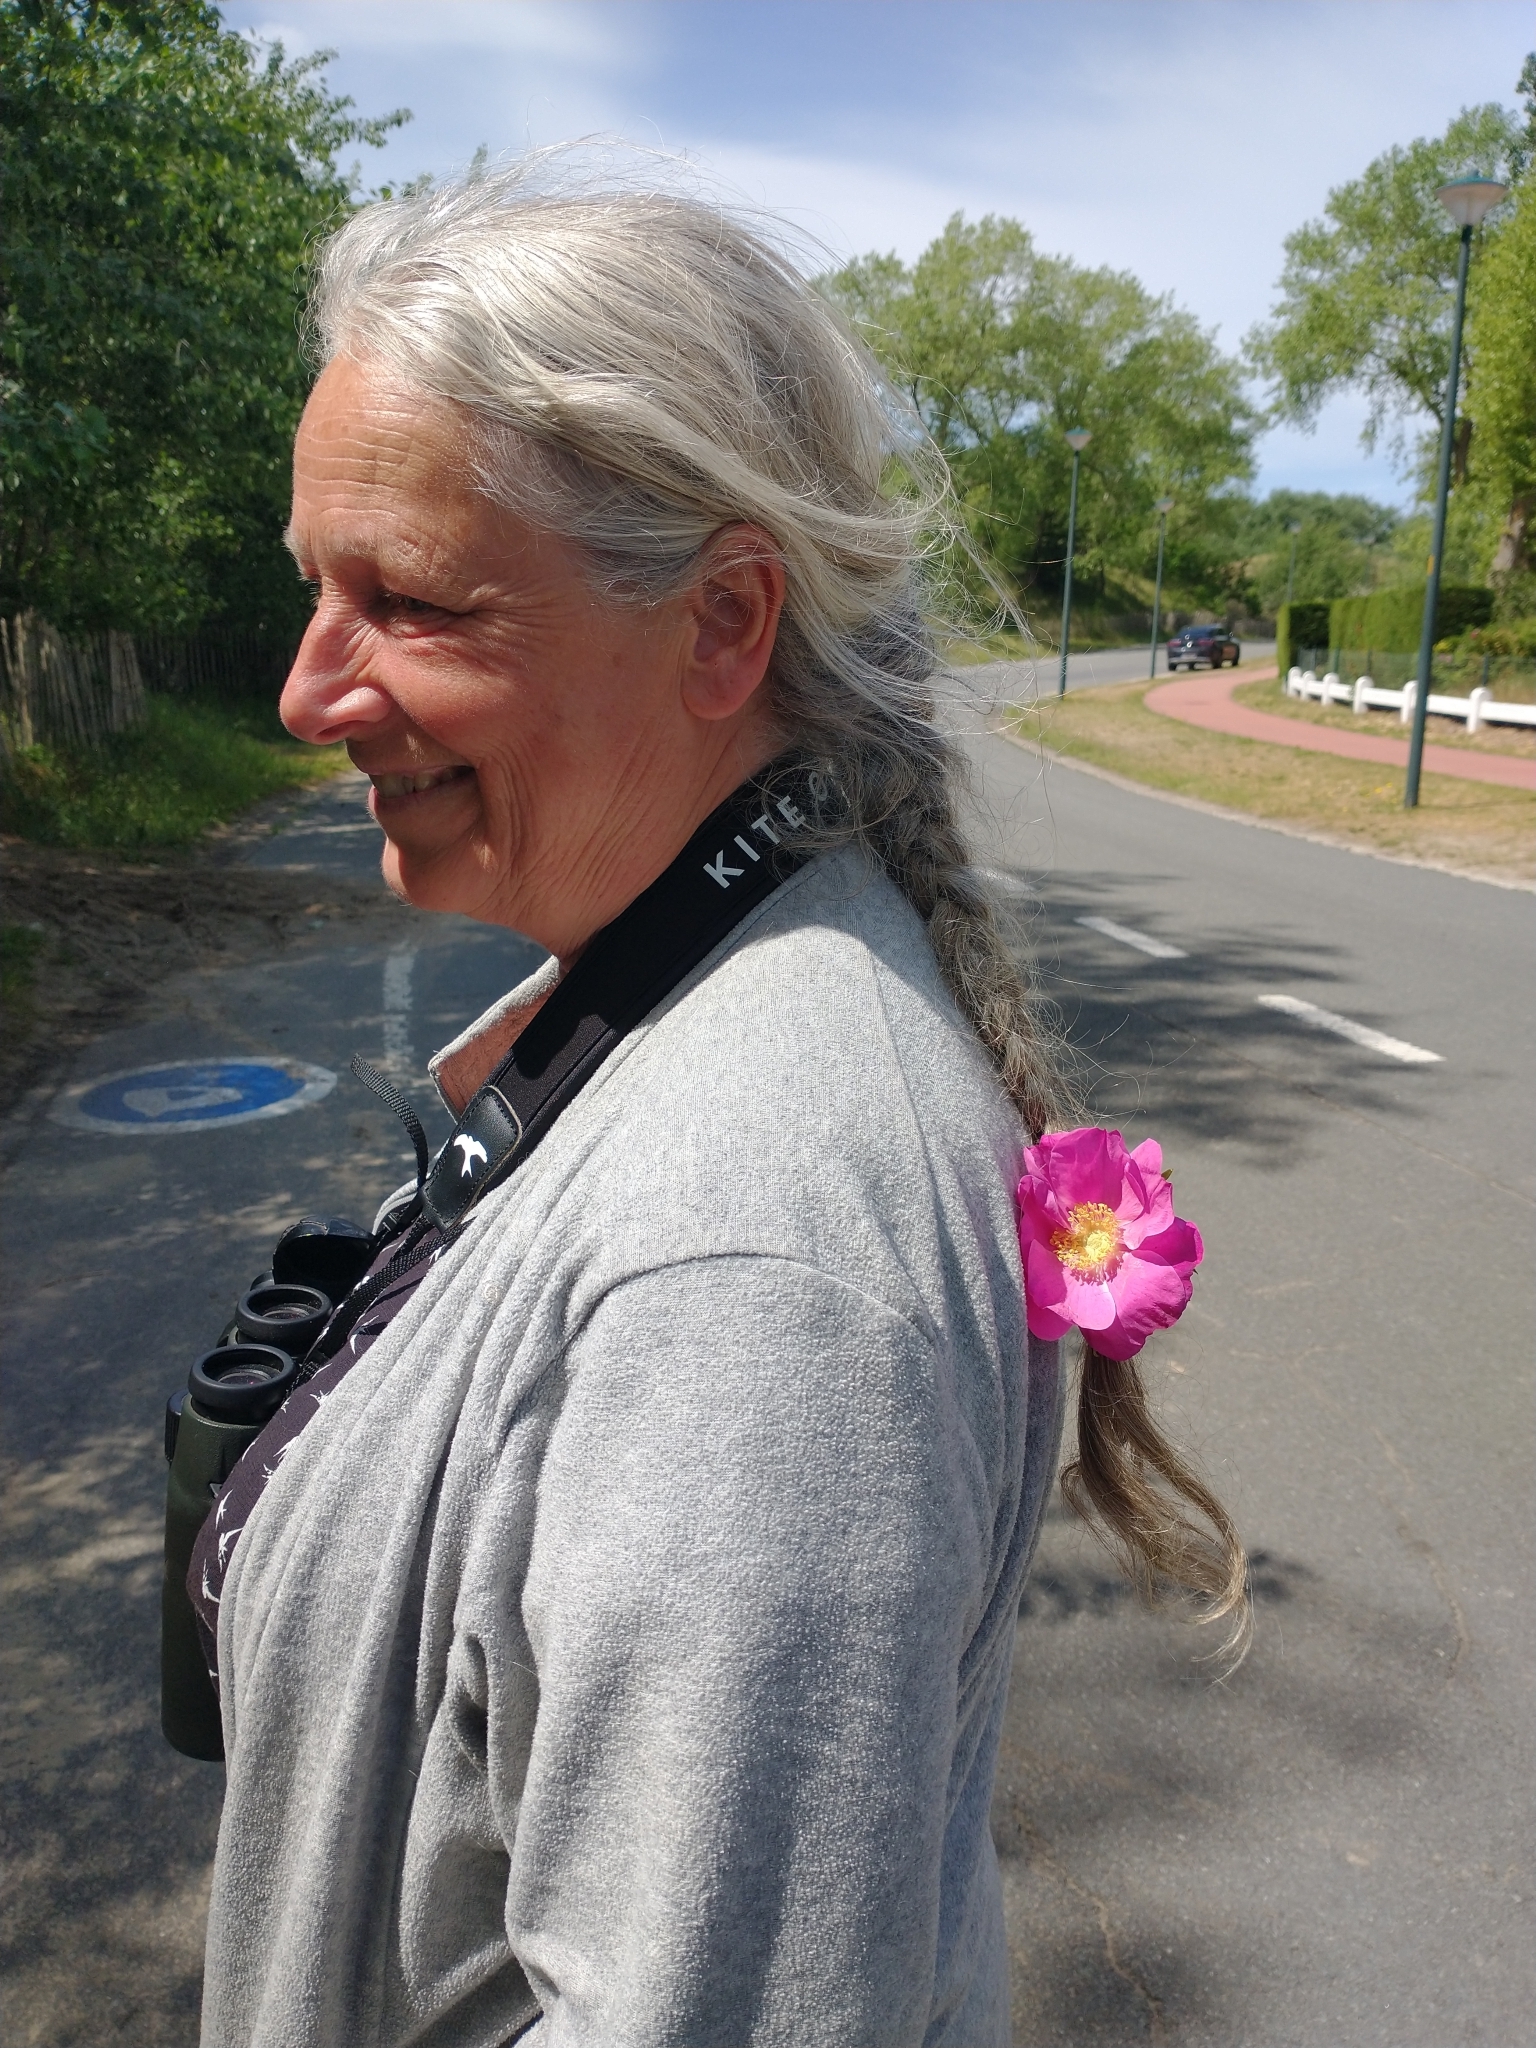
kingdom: Plantae
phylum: Tracheophyta
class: Magnoliopsida
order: Rosales
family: Rosaceae
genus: Rosa
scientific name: Rosa rugosa
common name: Japanese rose
